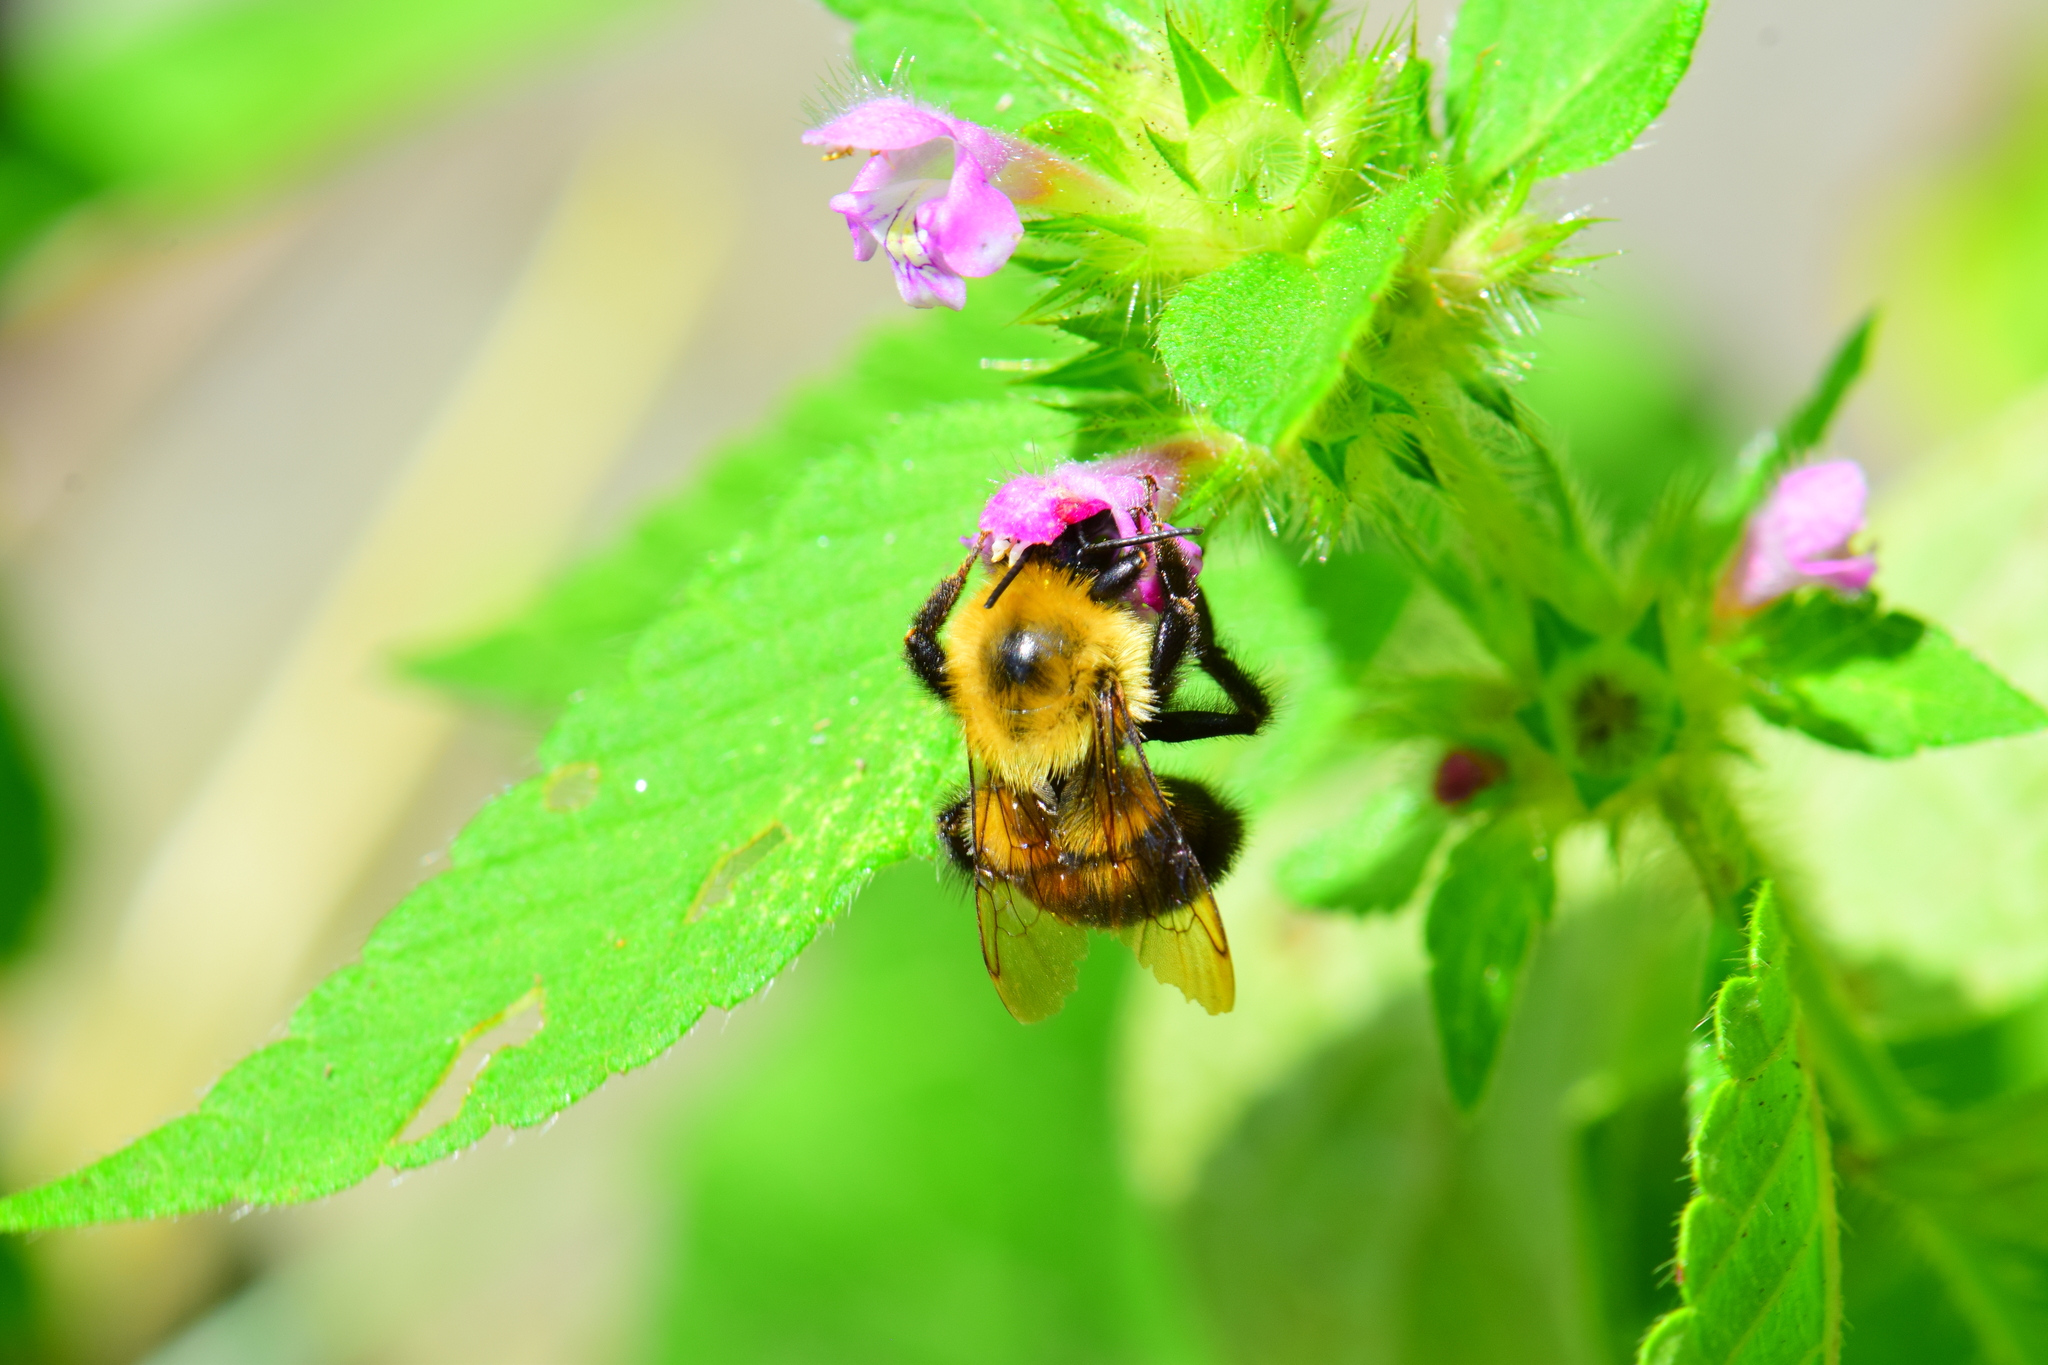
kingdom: Animalia
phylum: Arthropoda
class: Insecta
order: Hymenoptera
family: Apidae
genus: Bombus
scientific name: Bombus bimaculatus
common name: Two-spotted bumble bee
